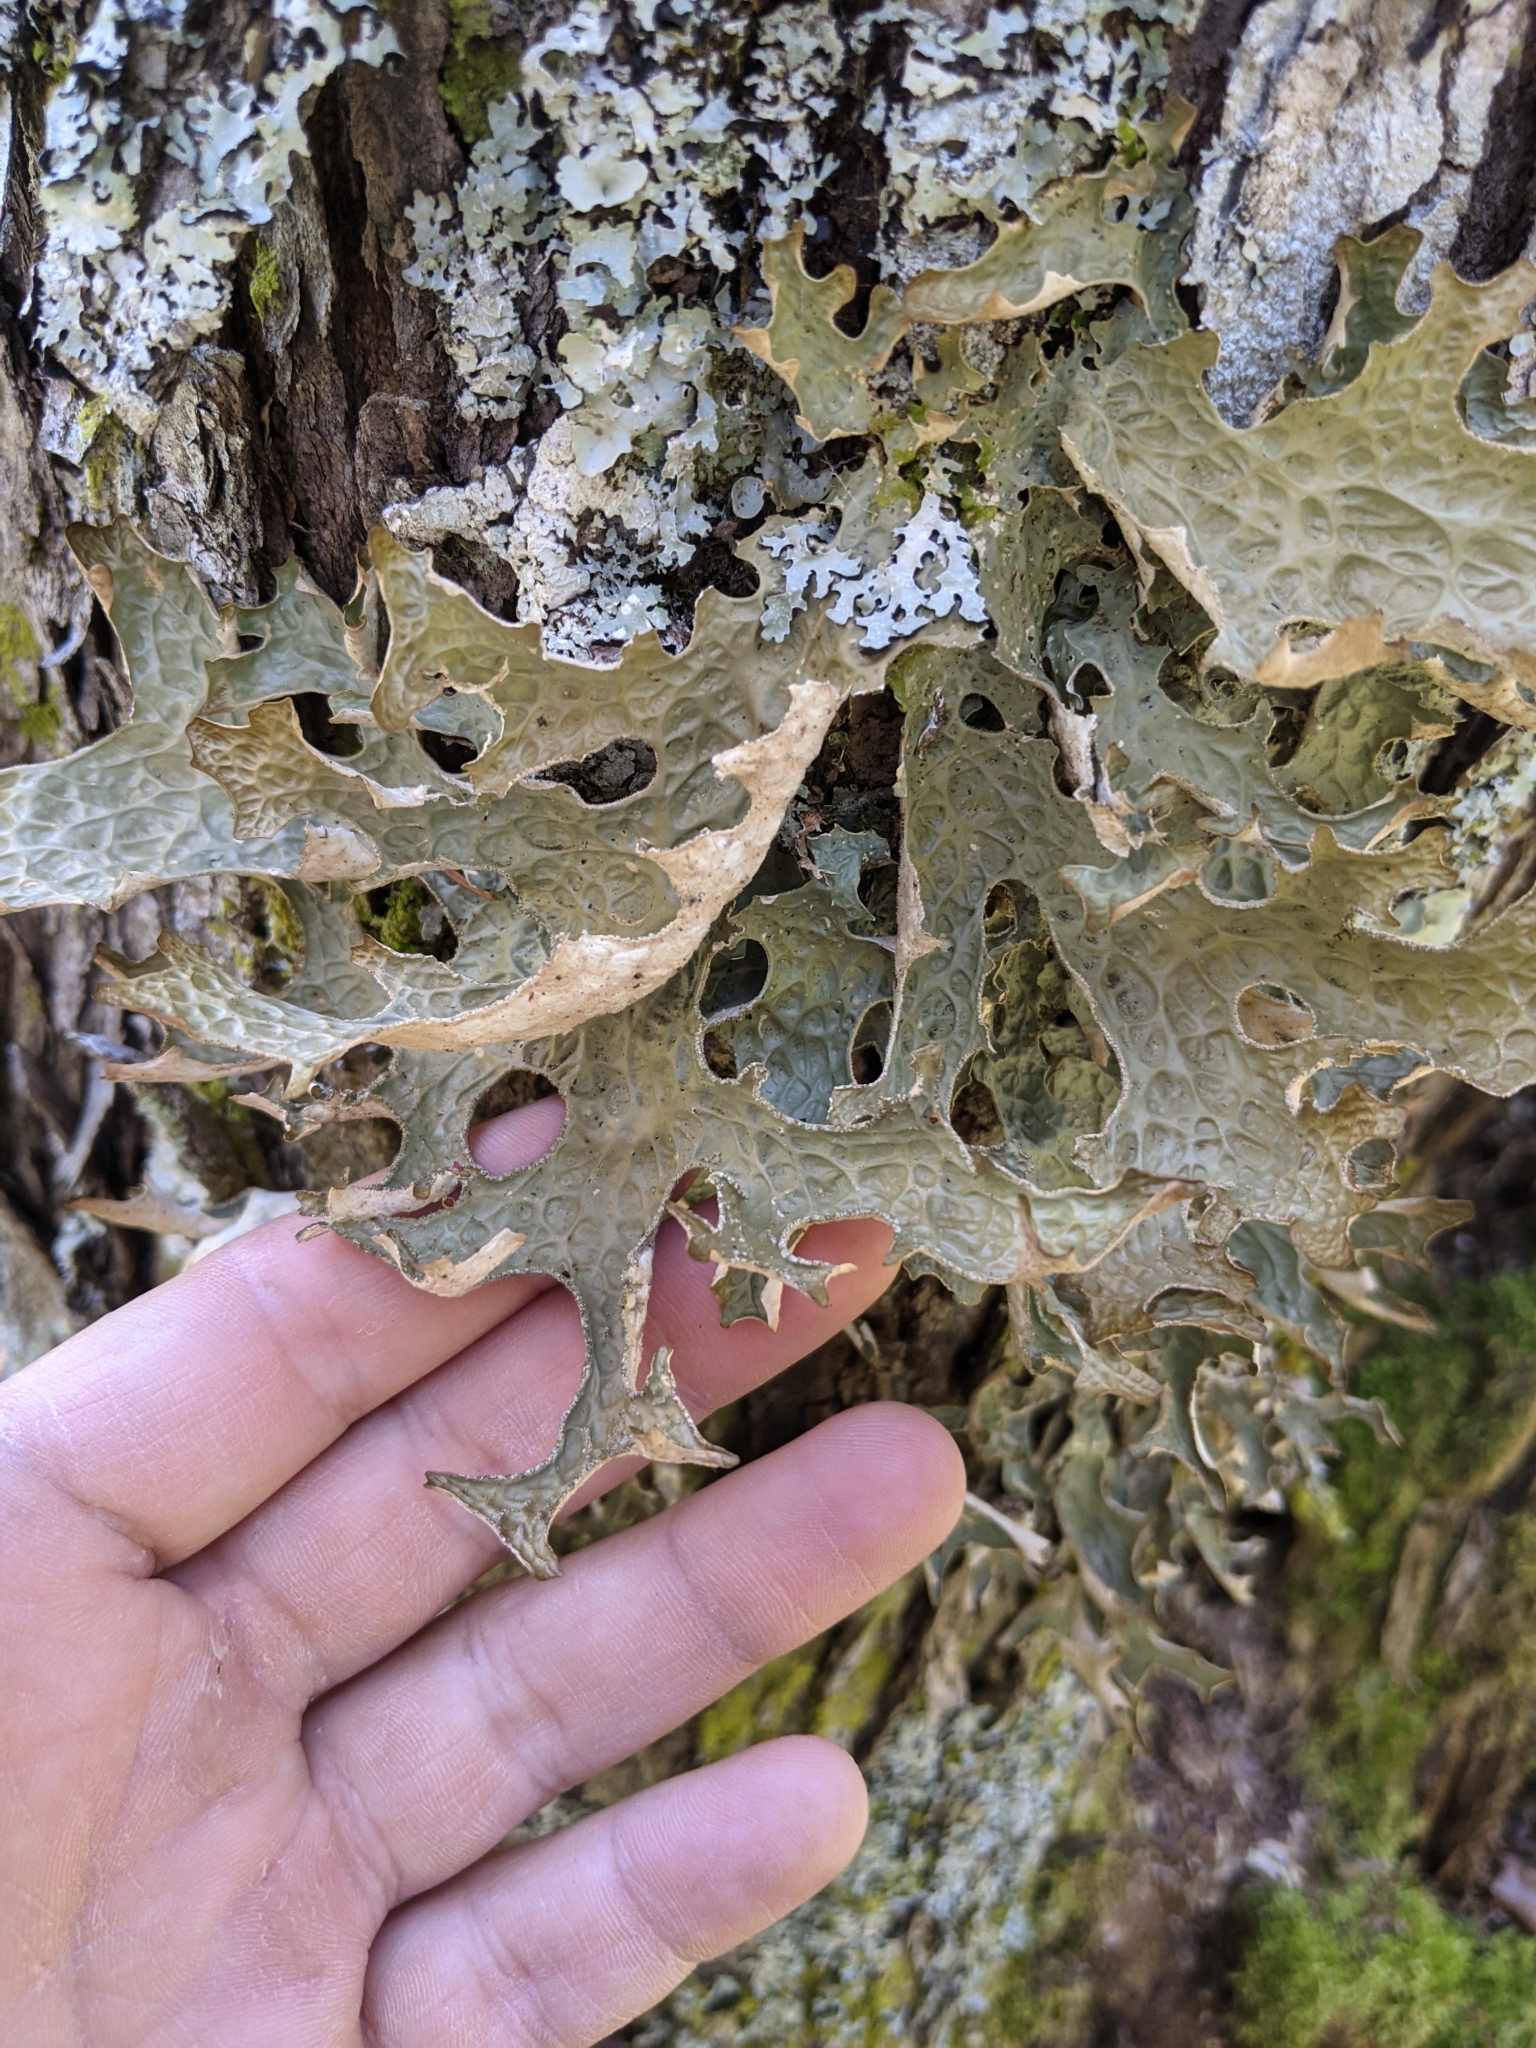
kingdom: Fungi
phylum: Ascomycota
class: Lecanoromycetes
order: Peltigerales
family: Lobariaceae
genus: Lobaria
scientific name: Lobaria pulmonaria
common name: Lungwort
